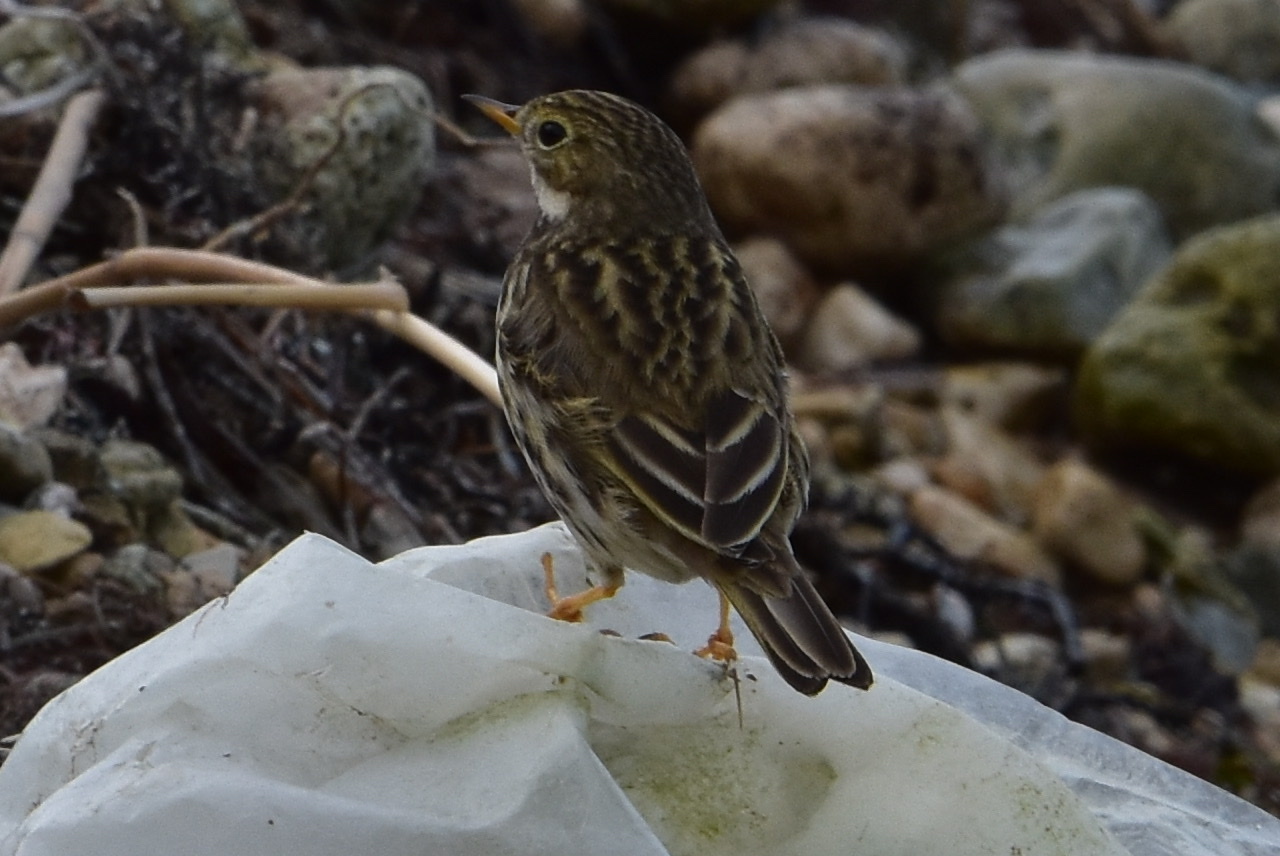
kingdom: Animalia
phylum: Chordata
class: Aves
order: Passeriformes
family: Motacillidae
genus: Anthus
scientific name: Anthus pratensis
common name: Meadow pipit
